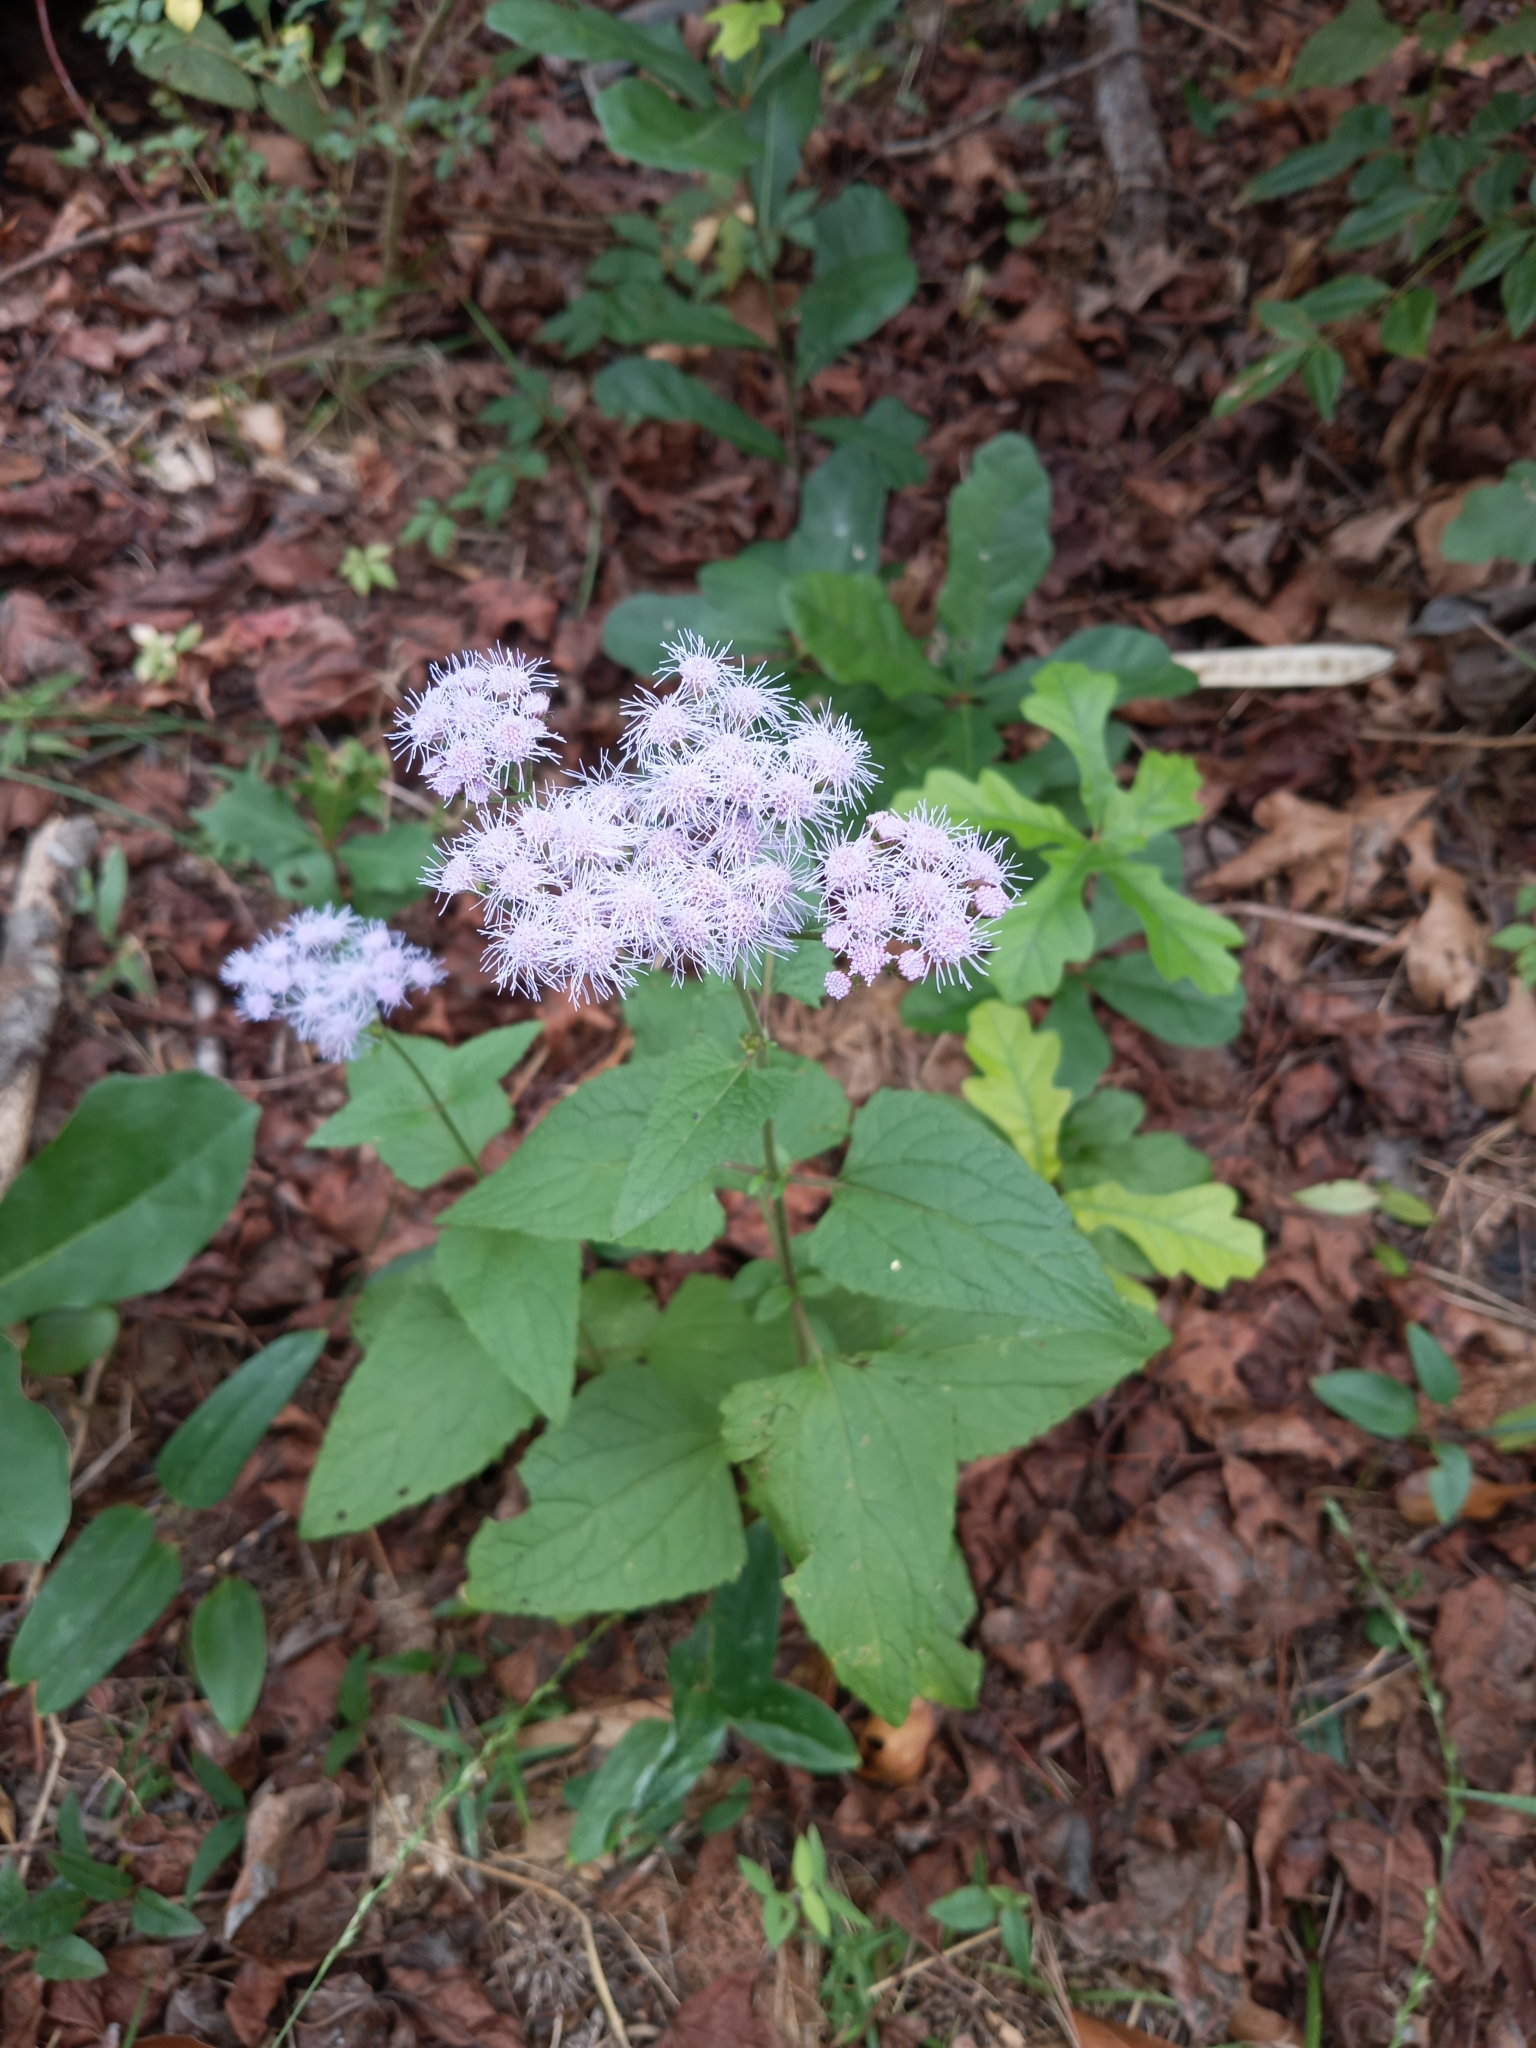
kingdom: Plantae
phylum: Tracheophyta
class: Magnoliopsida
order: Asterales
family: Asteraceae
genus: Conoclinium
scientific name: Conoclinium coelestinum
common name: Blue mistflower
